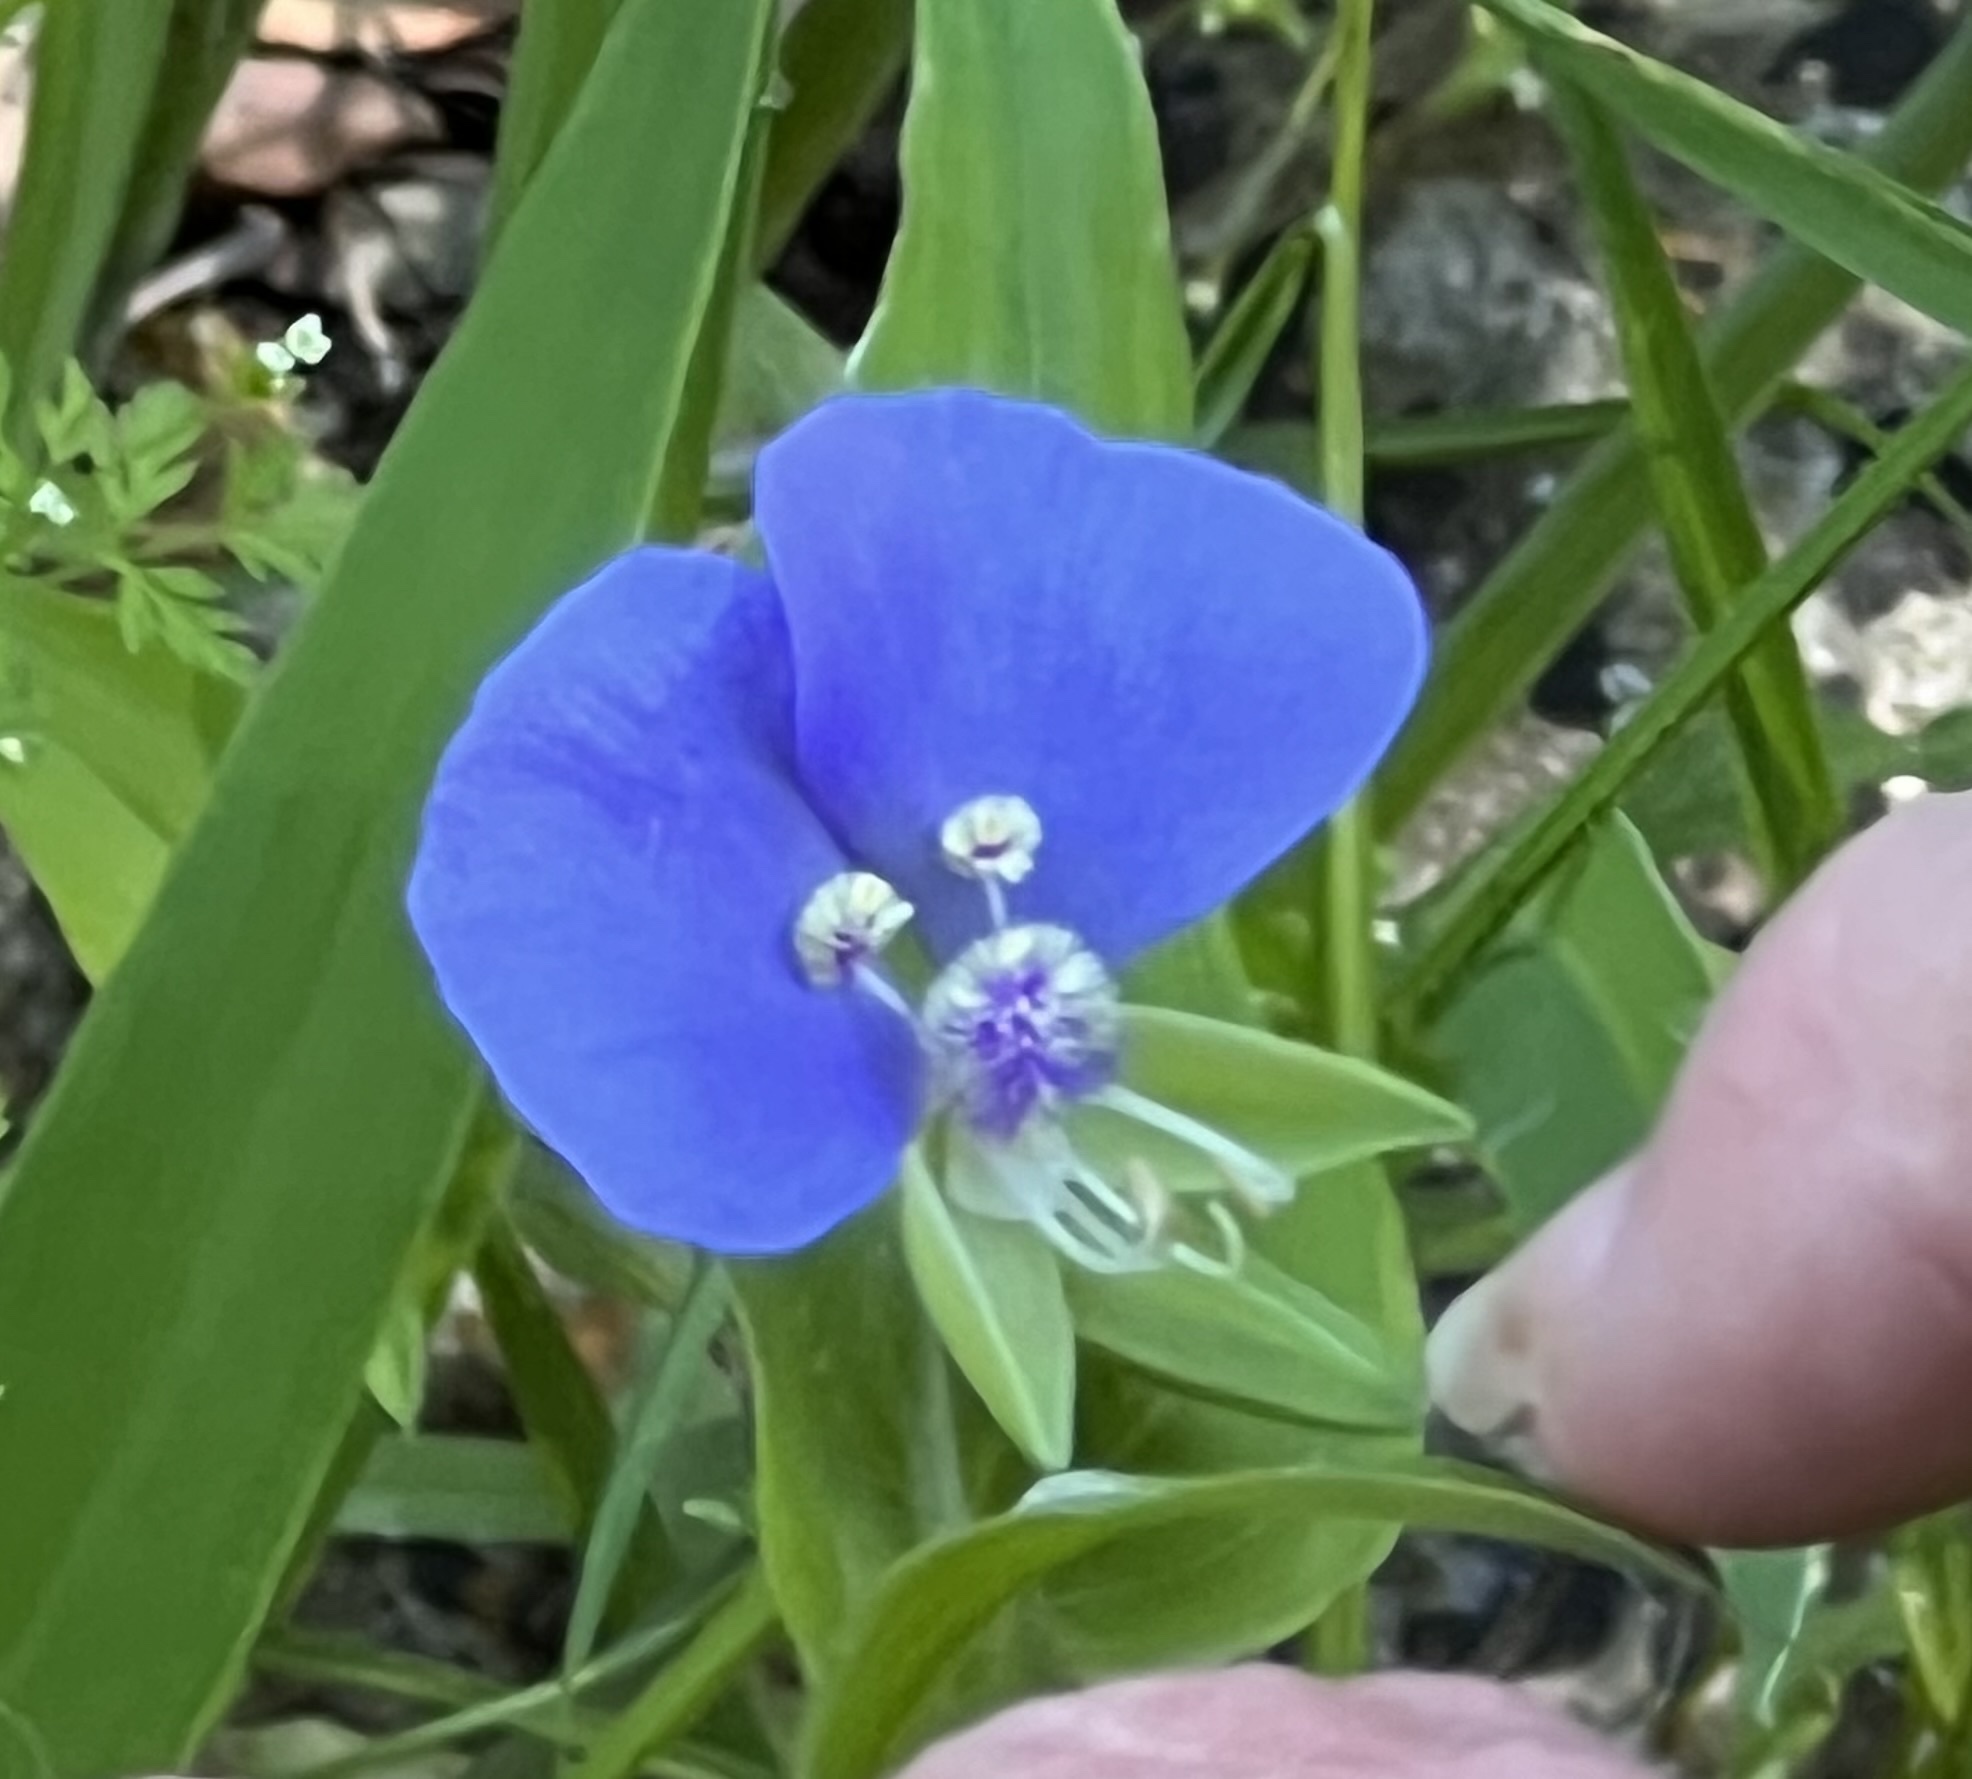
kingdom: Plantae
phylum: Tracheophyta
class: Liliopsida
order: Commelinales
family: Commelinaceae
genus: Tinantia
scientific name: Tinantia anomala
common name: False dayflower
